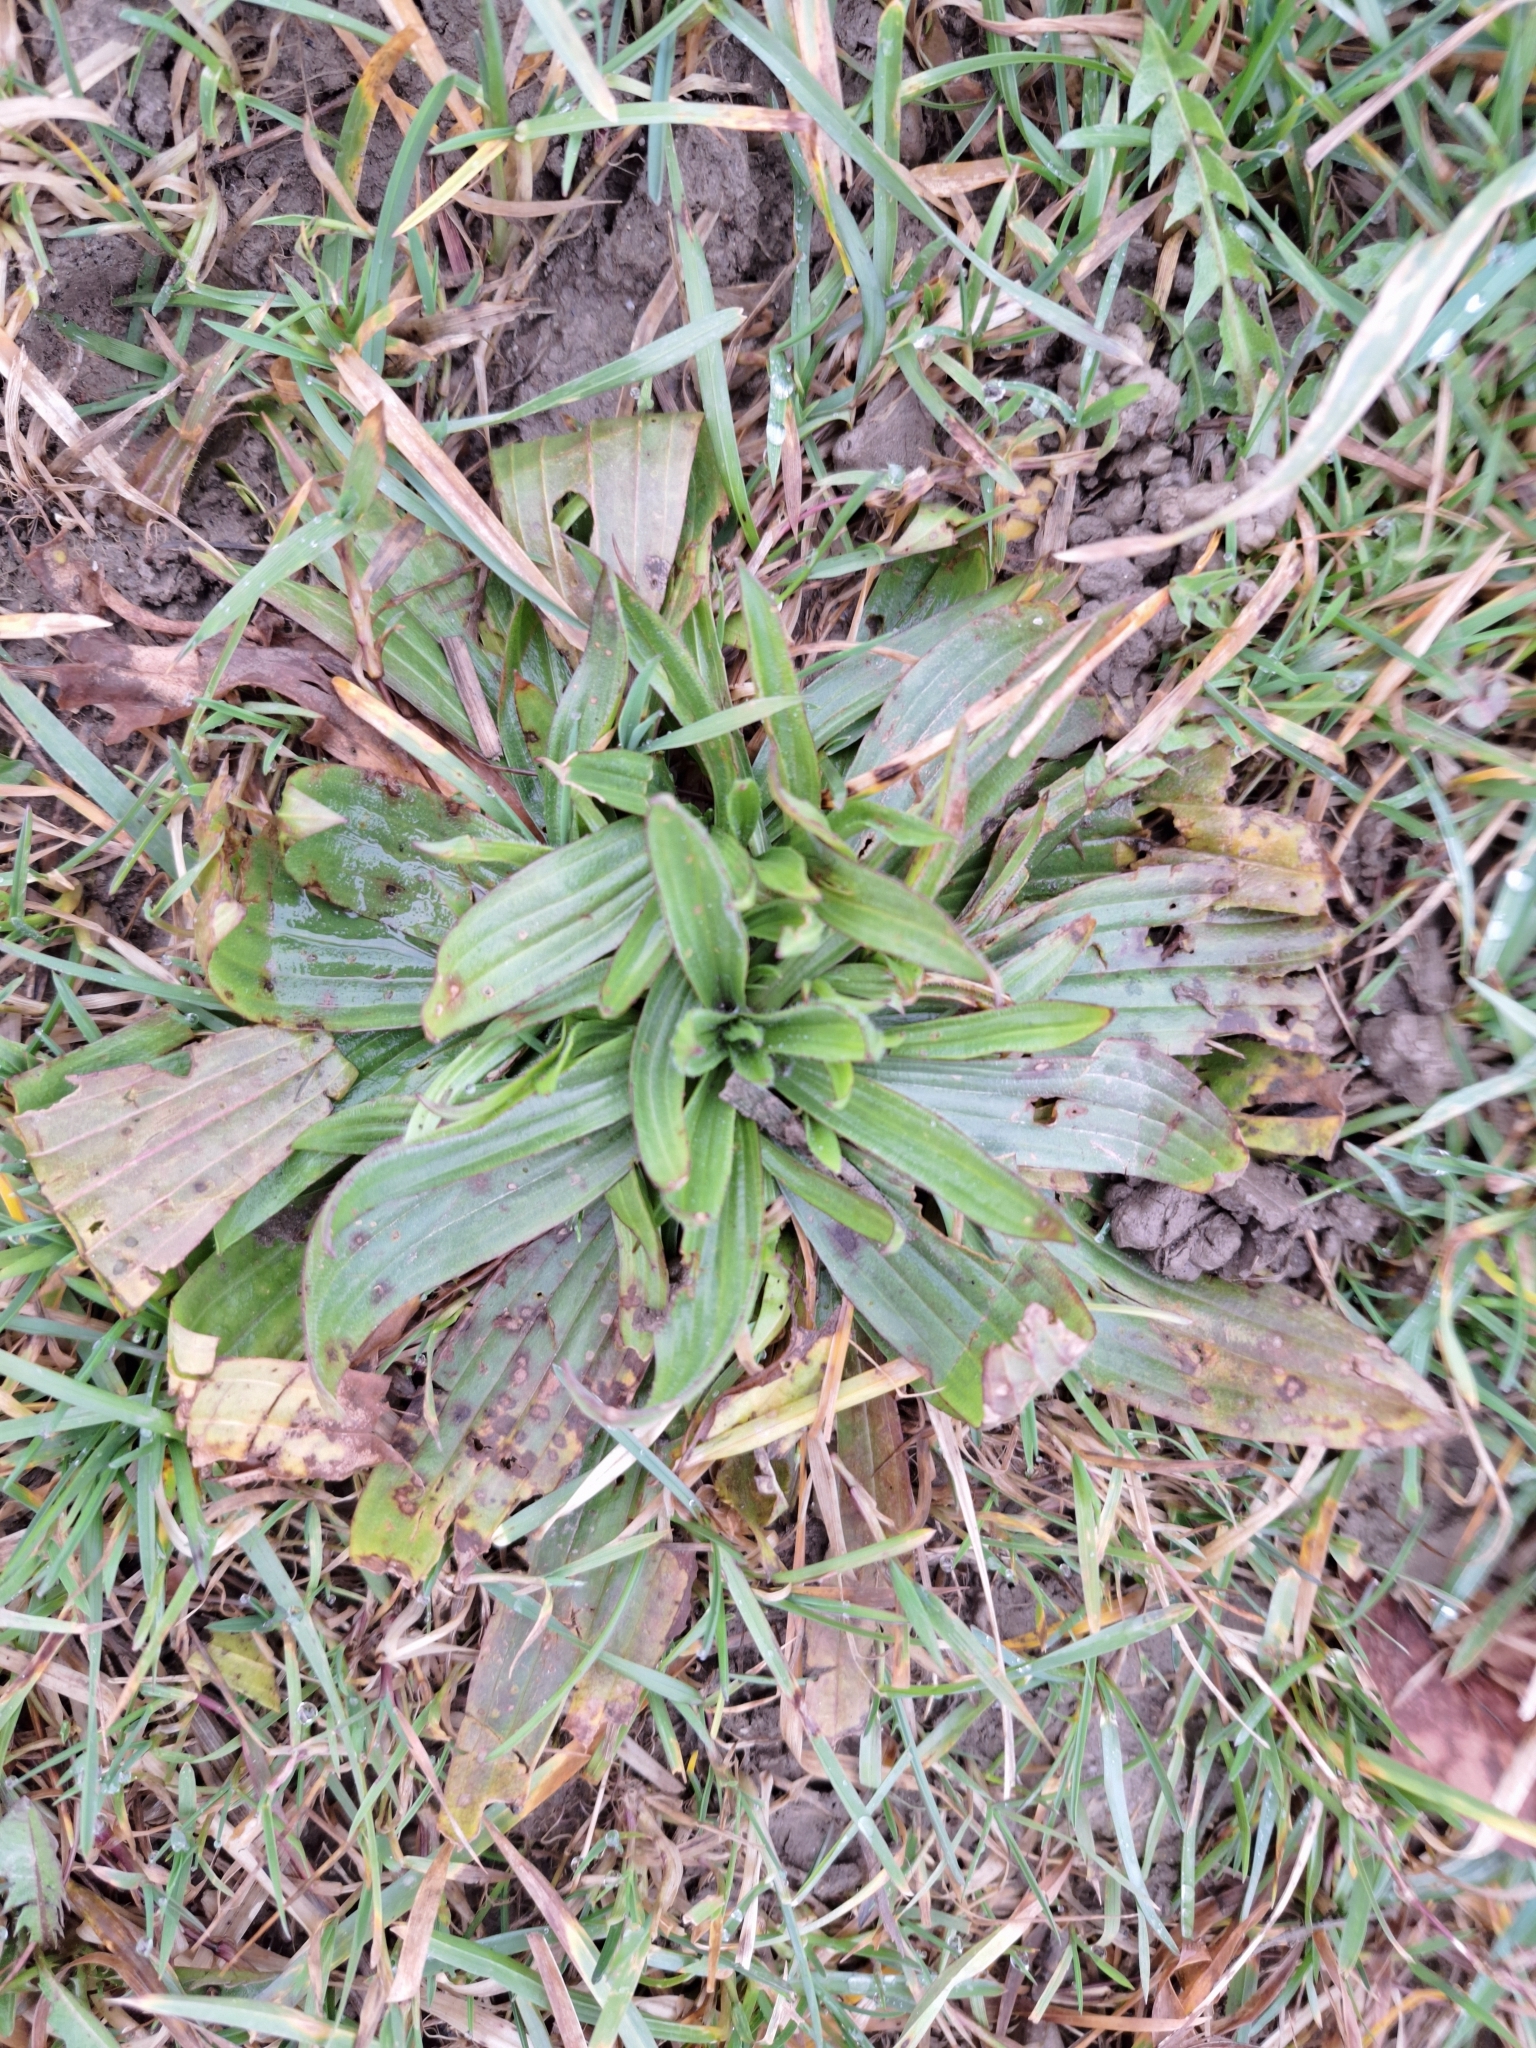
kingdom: Plantae
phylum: Tracheophyta
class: Magnoliopsida
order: Lamiales
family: Plantaginaceae
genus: Plantago
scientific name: Plantago lanceolata
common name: Ribwort plantain
